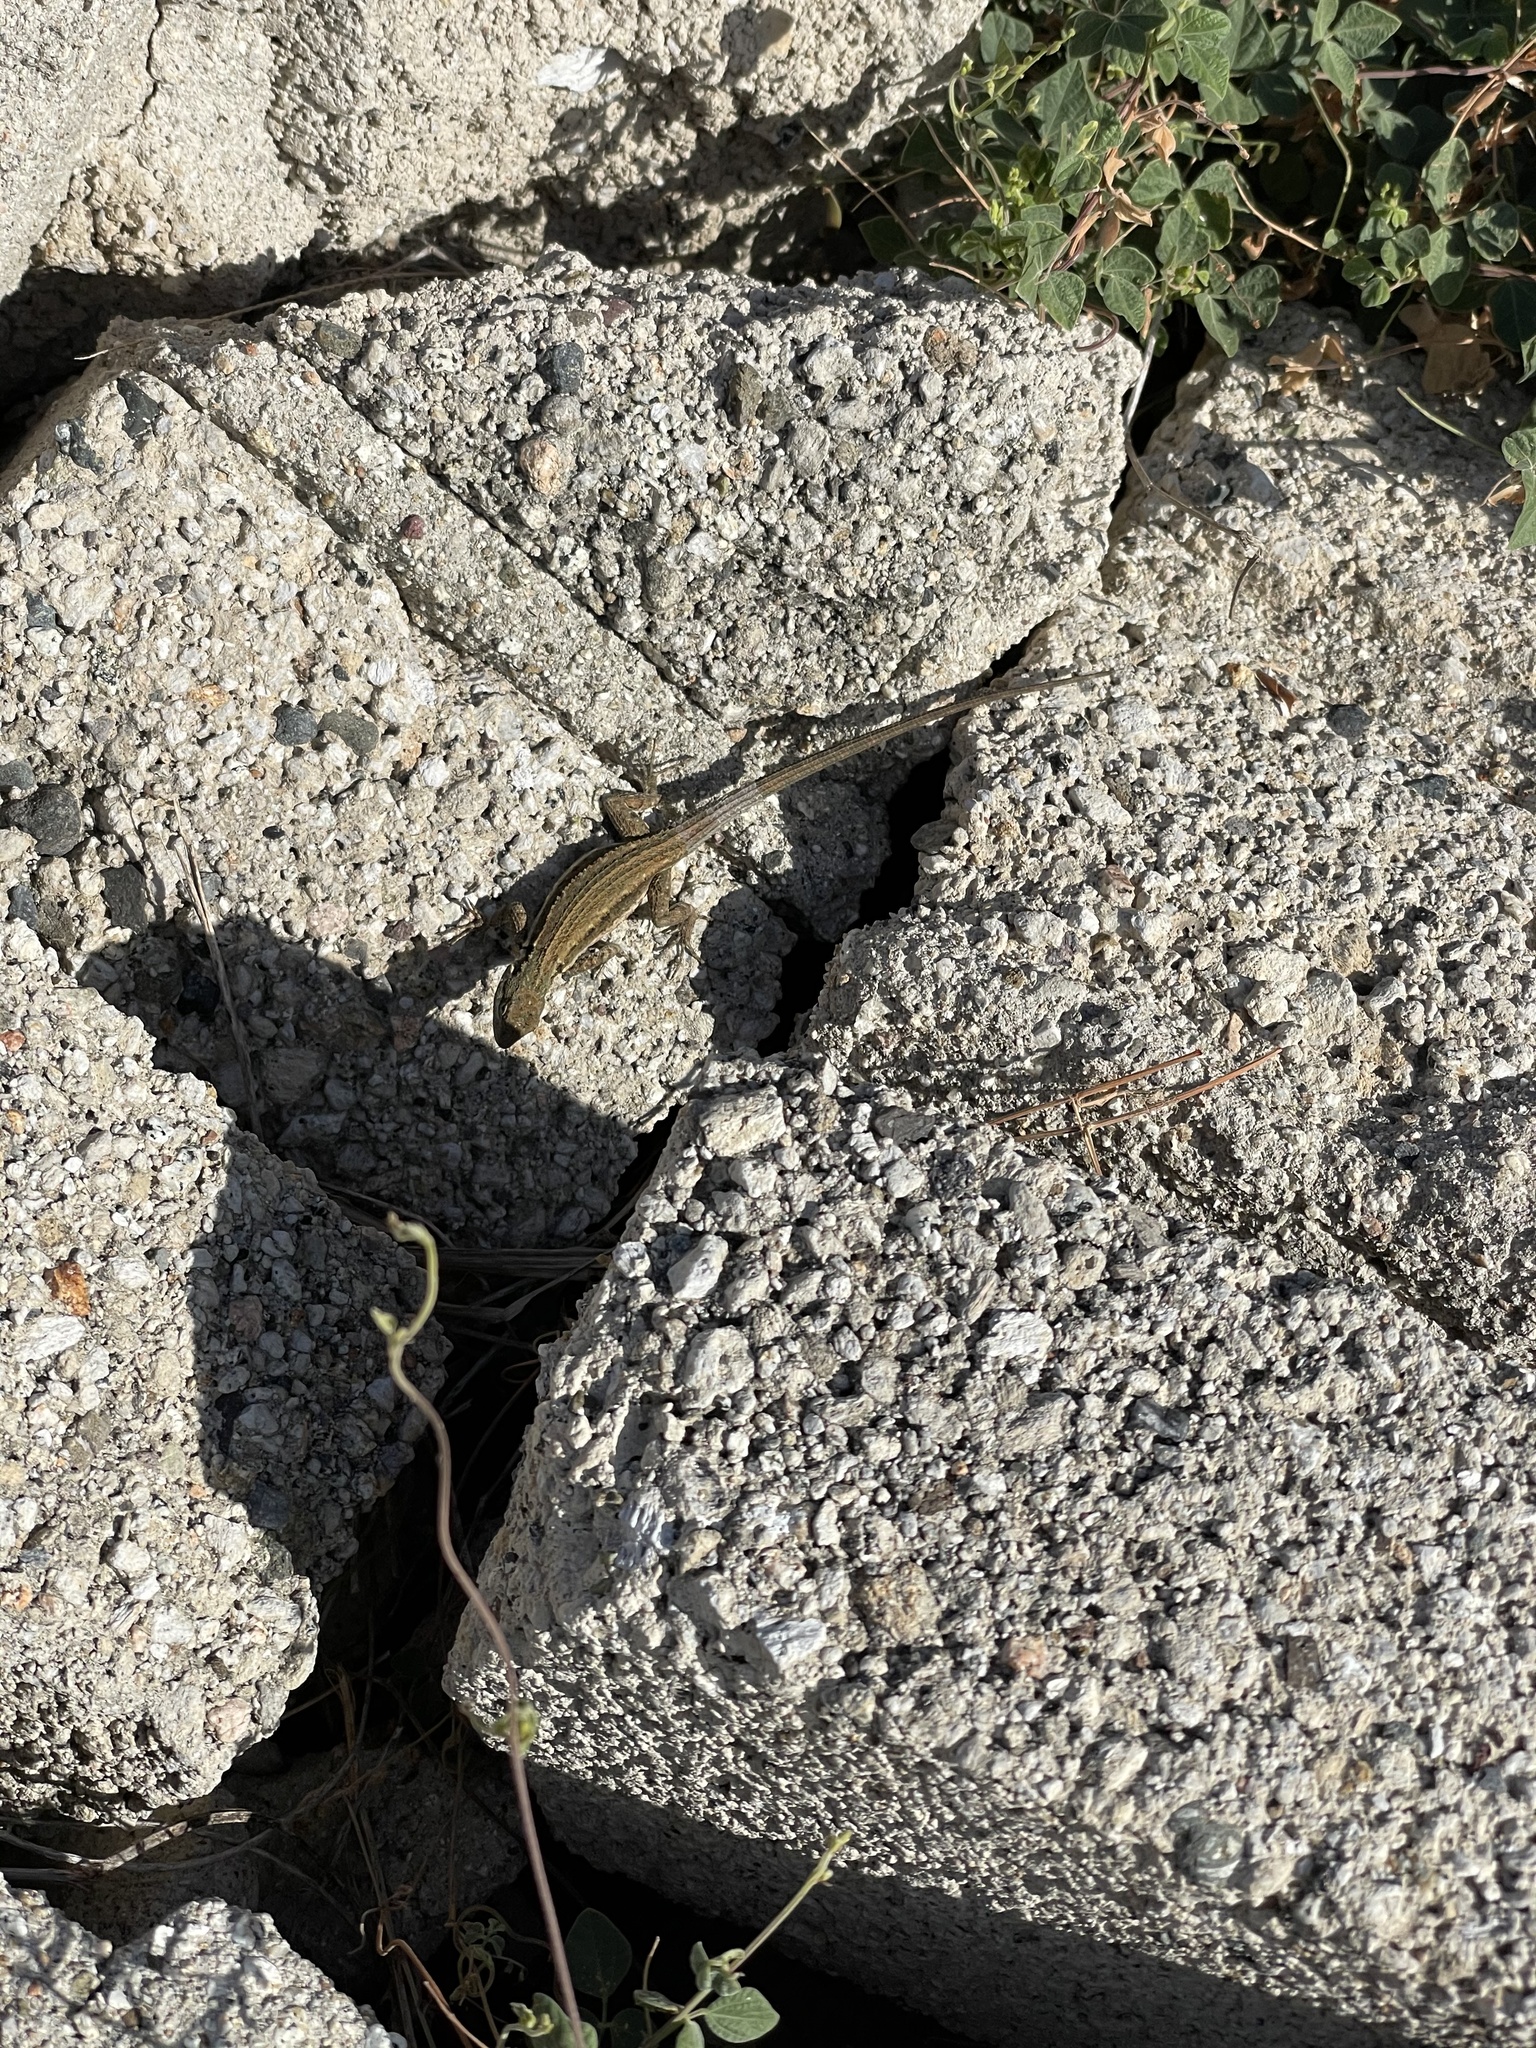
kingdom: Animalia
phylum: Chordata
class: Squamata
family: Phrynosomatidae
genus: Urosaurus
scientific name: Urosaurus clarionensis
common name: Clarion island tree lizard
